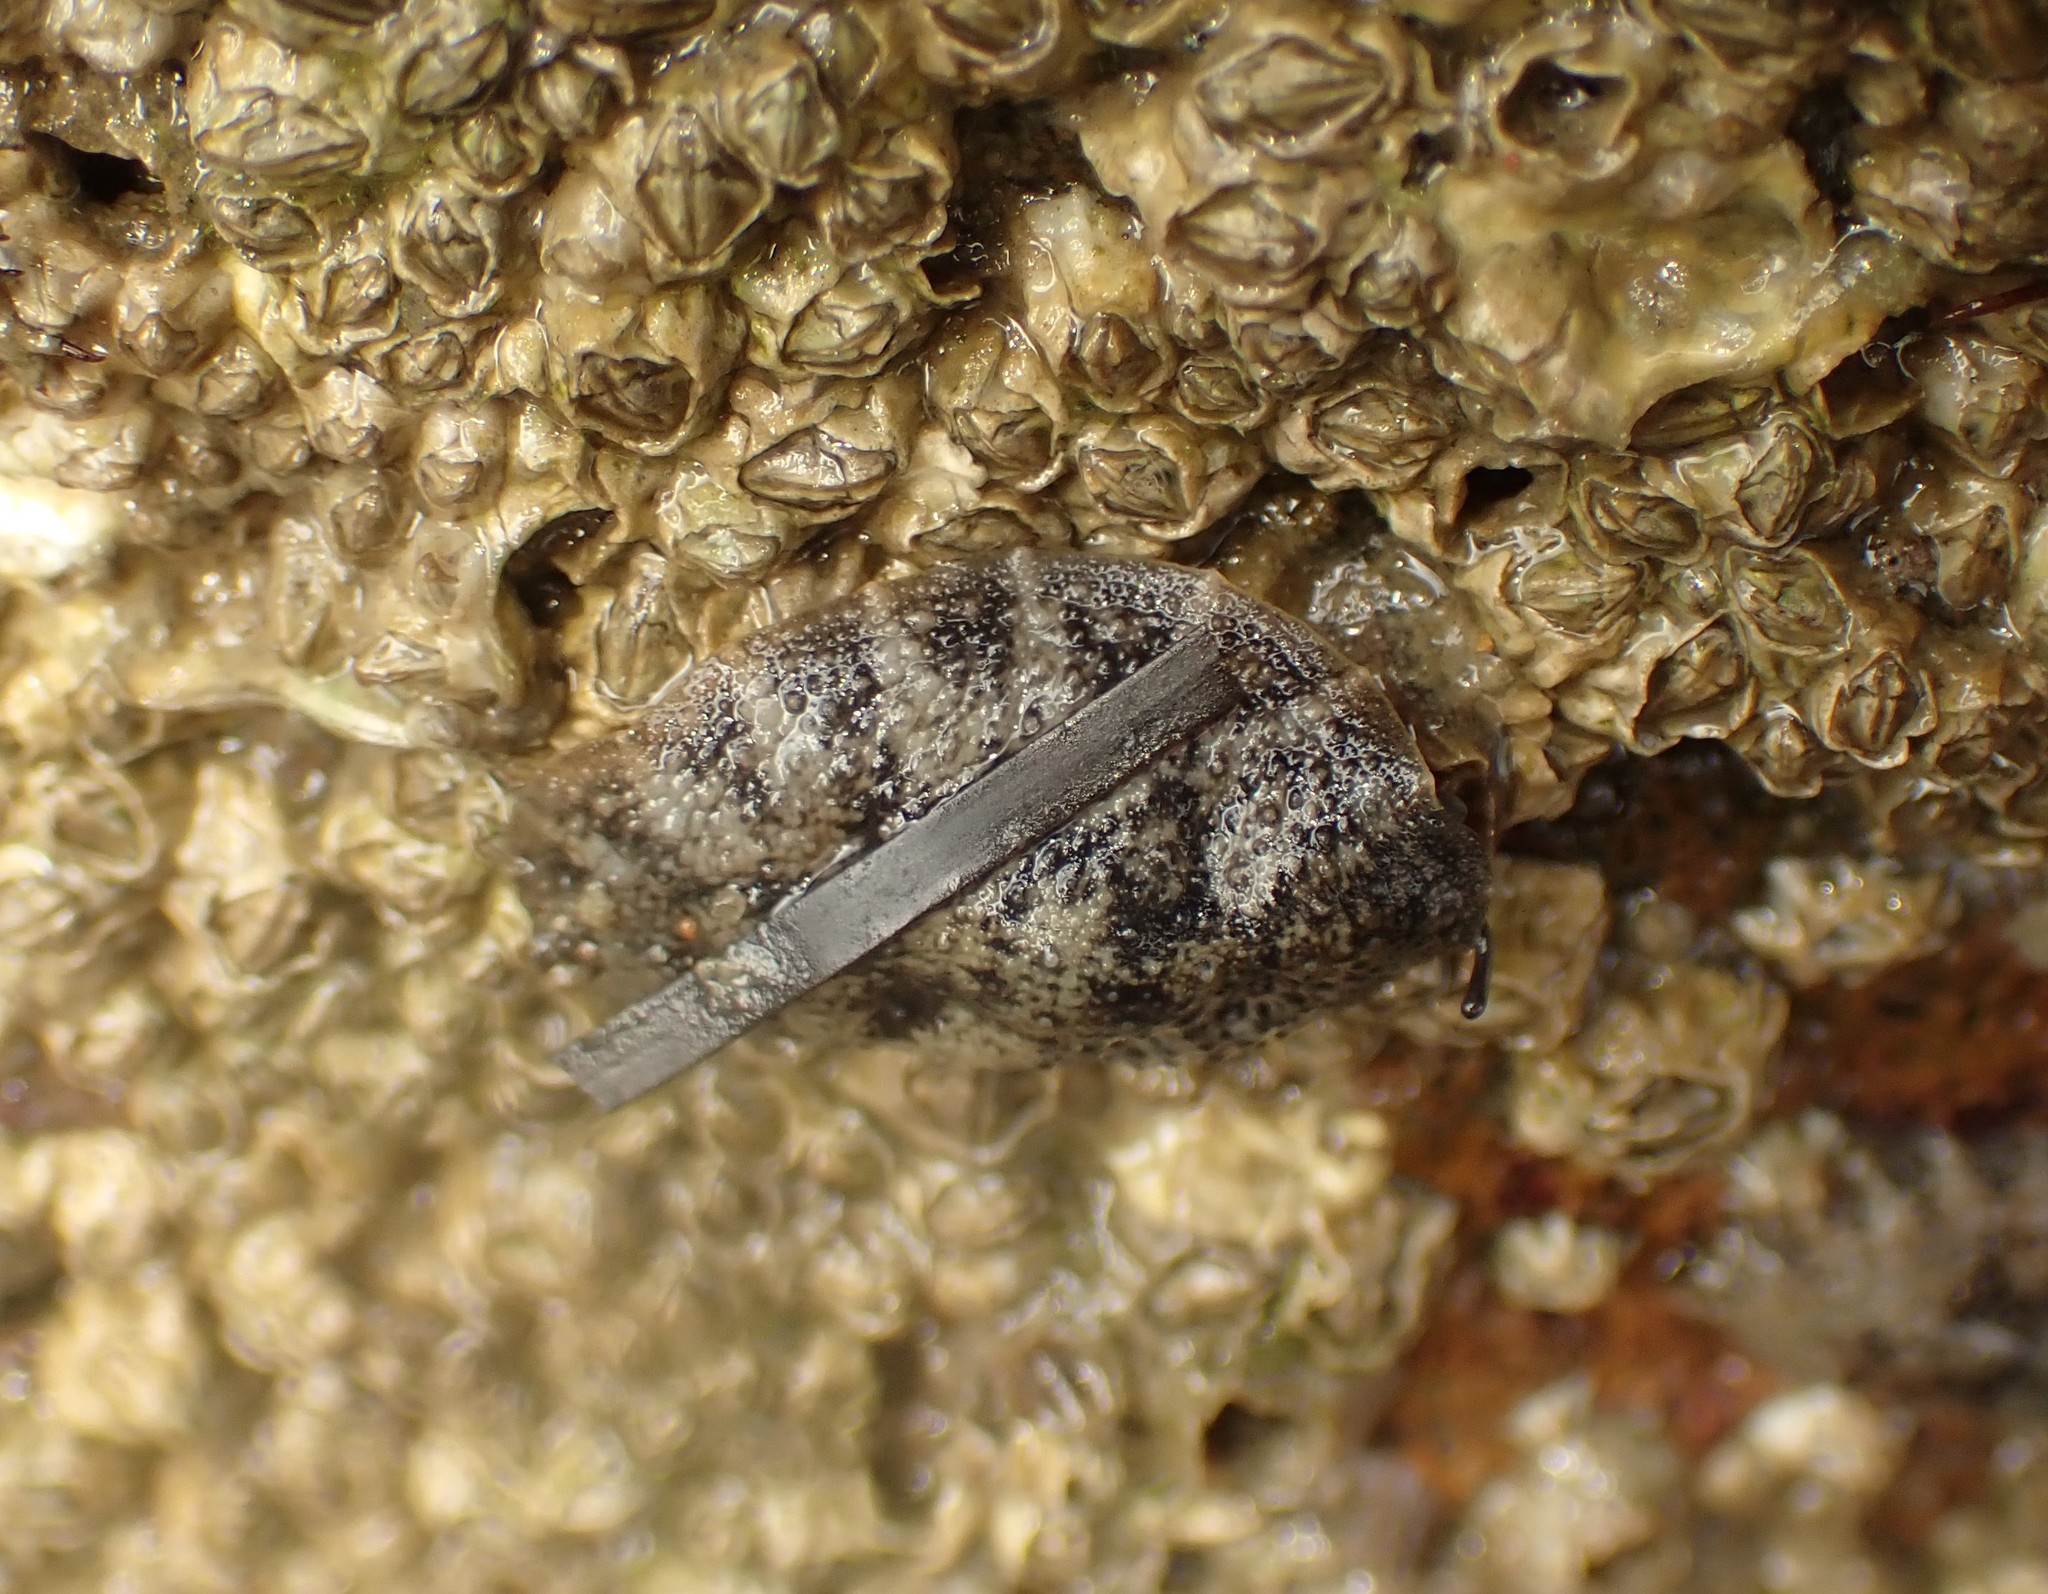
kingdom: Animalia
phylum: Mollusca
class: Gastropoda
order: Systellommatophora
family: Onchidiidae
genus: Onchidella
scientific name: Onchidella nigricans
